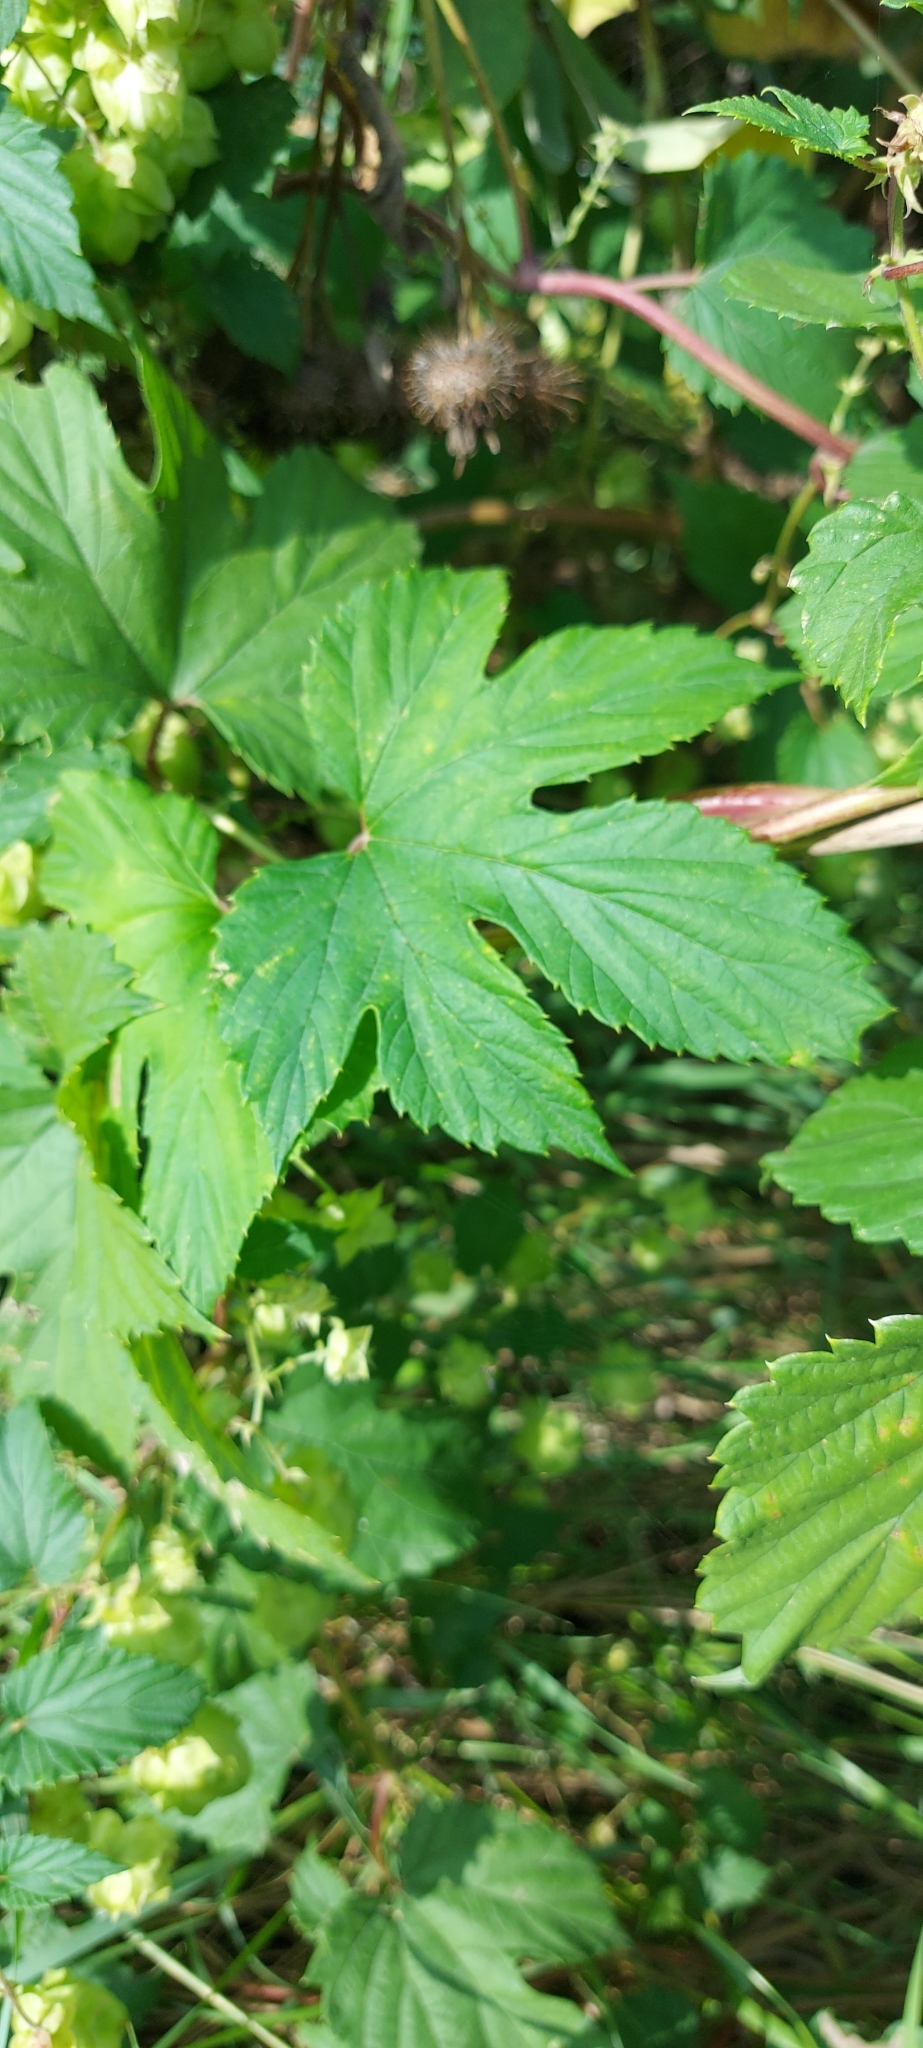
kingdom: Plantae
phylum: Tracheophyta
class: Magnoliopsida
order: Rosales
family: Cannabaceae
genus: Humulus
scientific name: Humulus lupulus
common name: Hop
